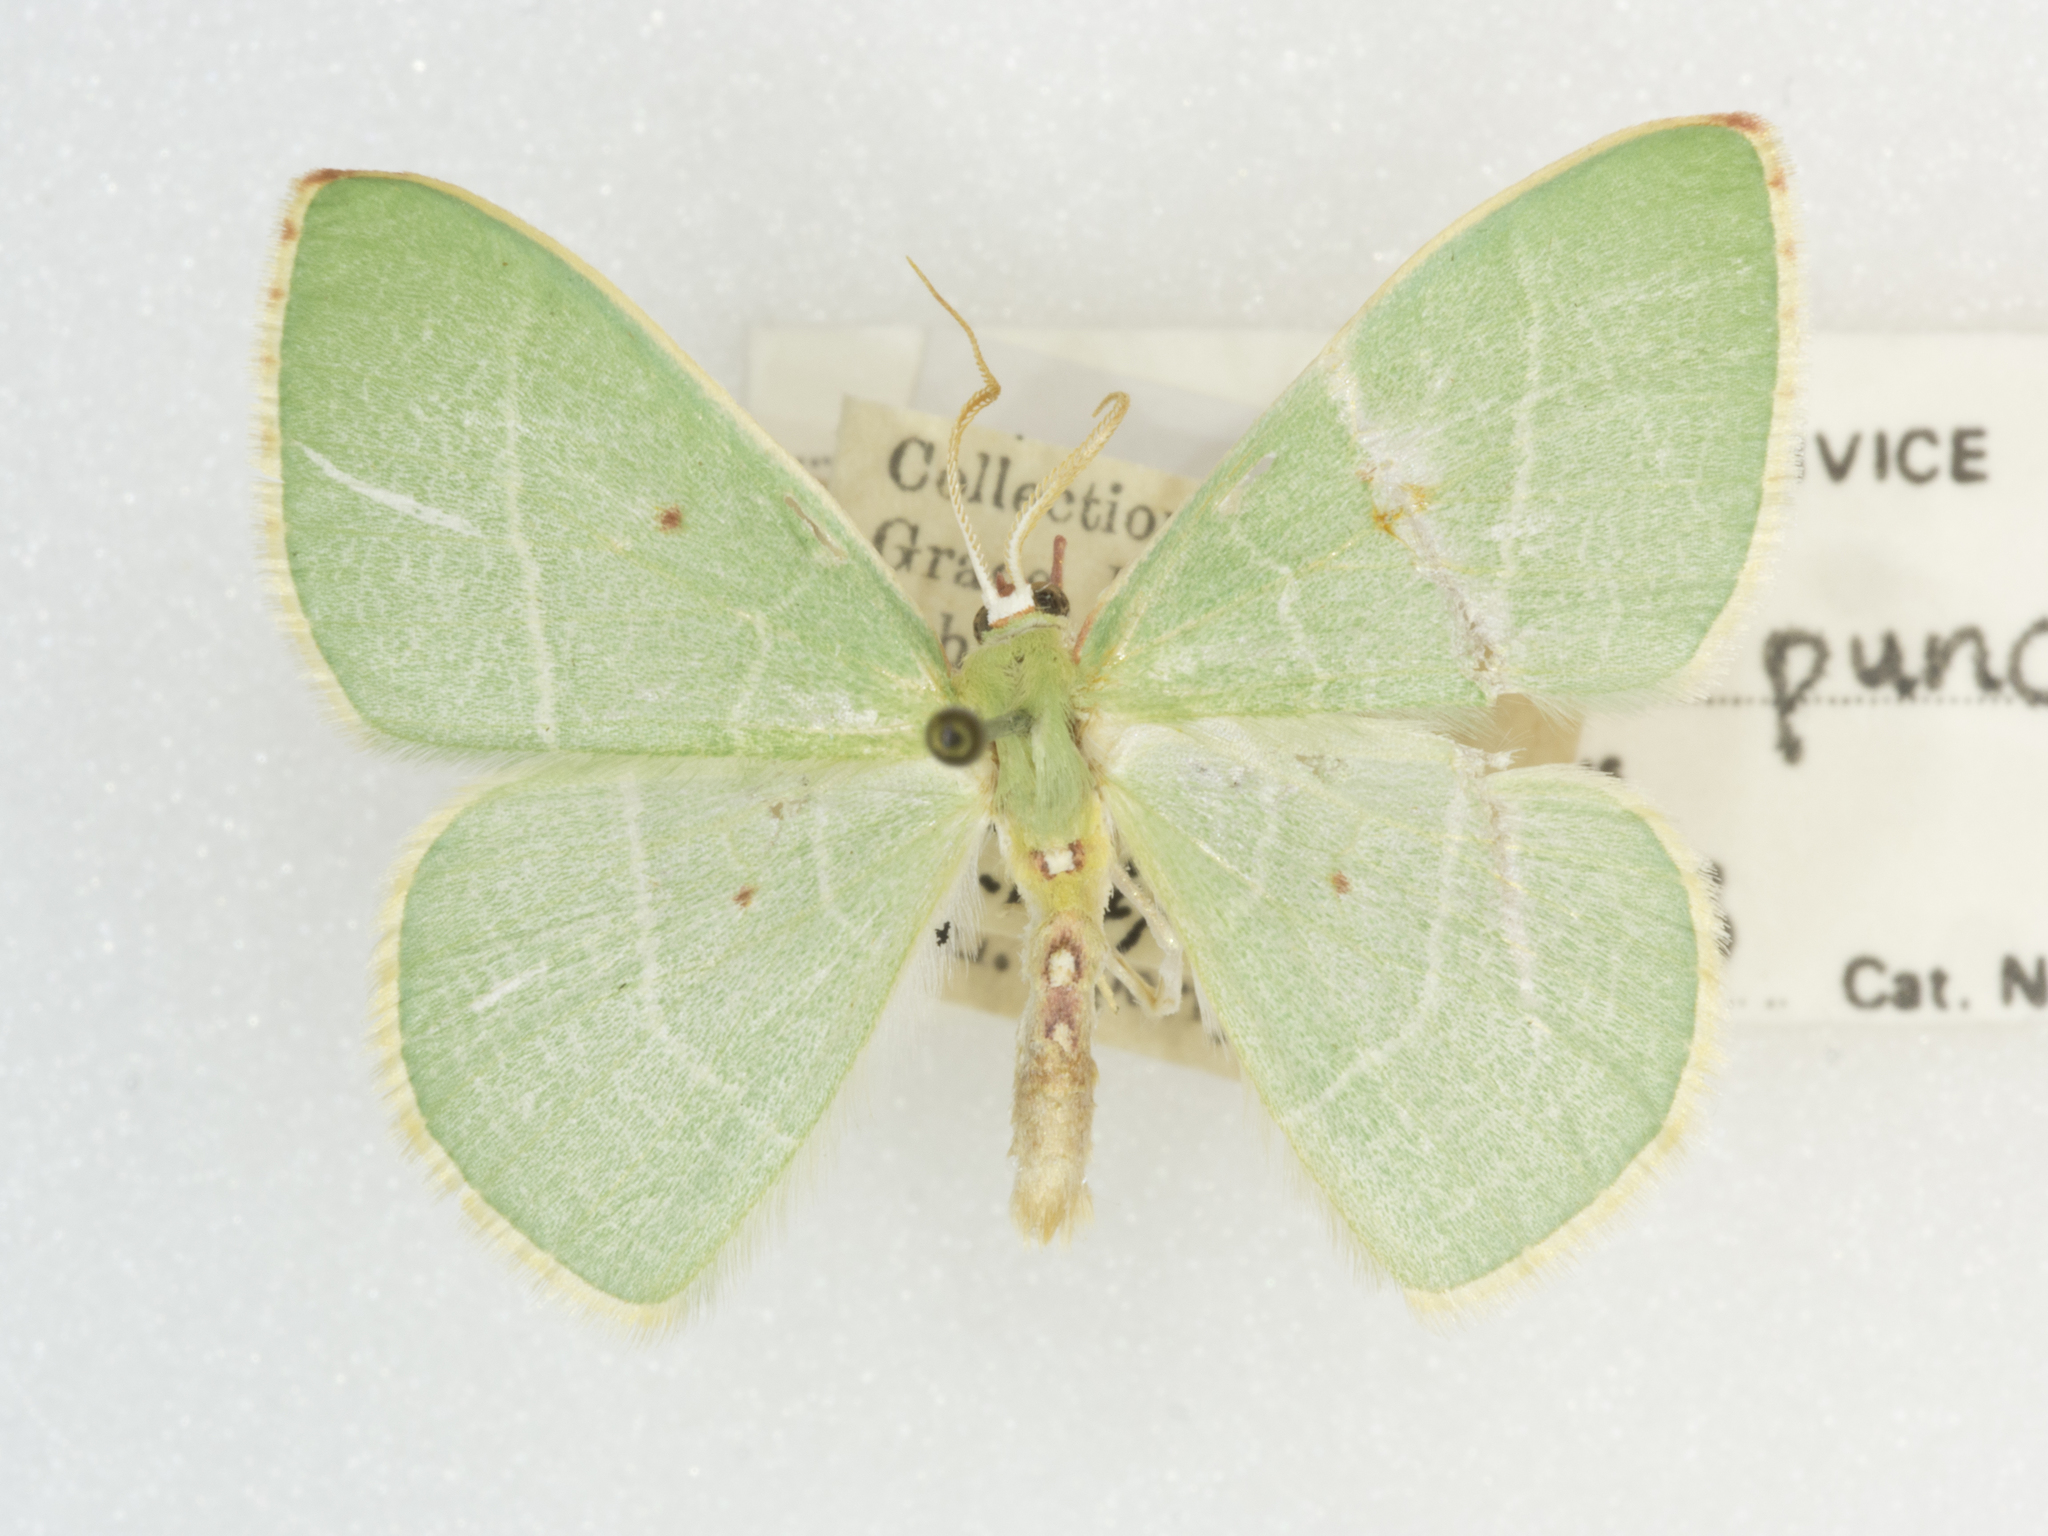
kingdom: Animalia
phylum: Arthropoda
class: Insecta
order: Lepidoptera
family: Geometridae
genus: Nemoria
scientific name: Nemoria darwiniata
